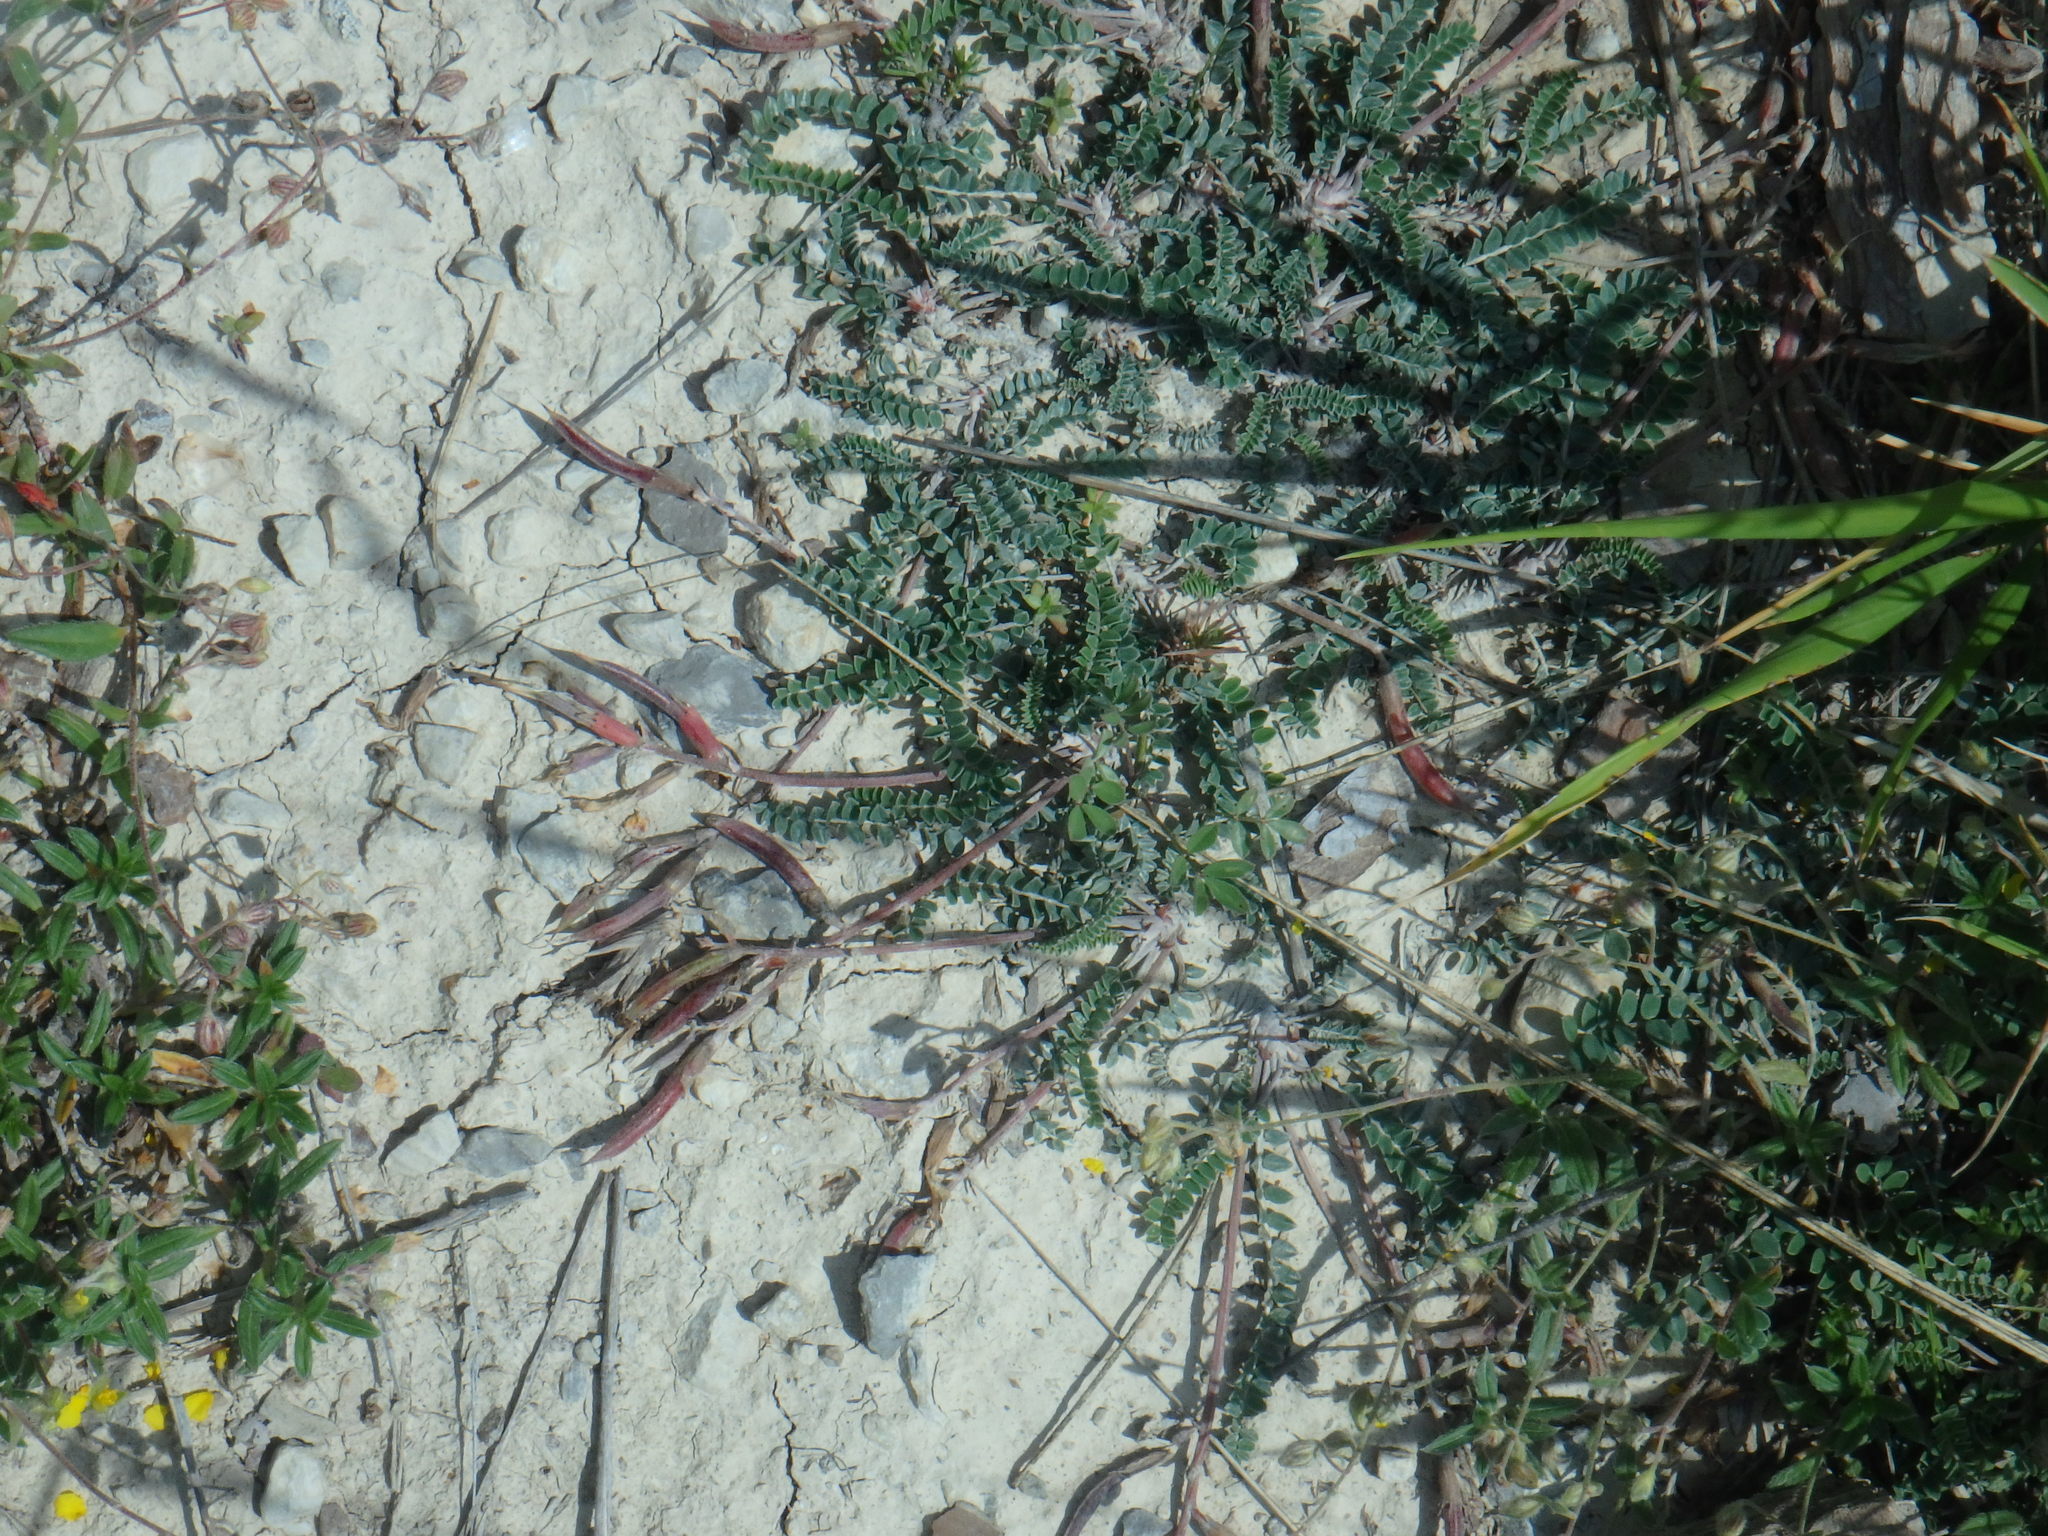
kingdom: Plantae
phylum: Tracheophyta
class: Magnoliopsida
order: Fabales
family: Fabaceae
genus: Astragalus
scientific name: Astragalus monspessulanus
